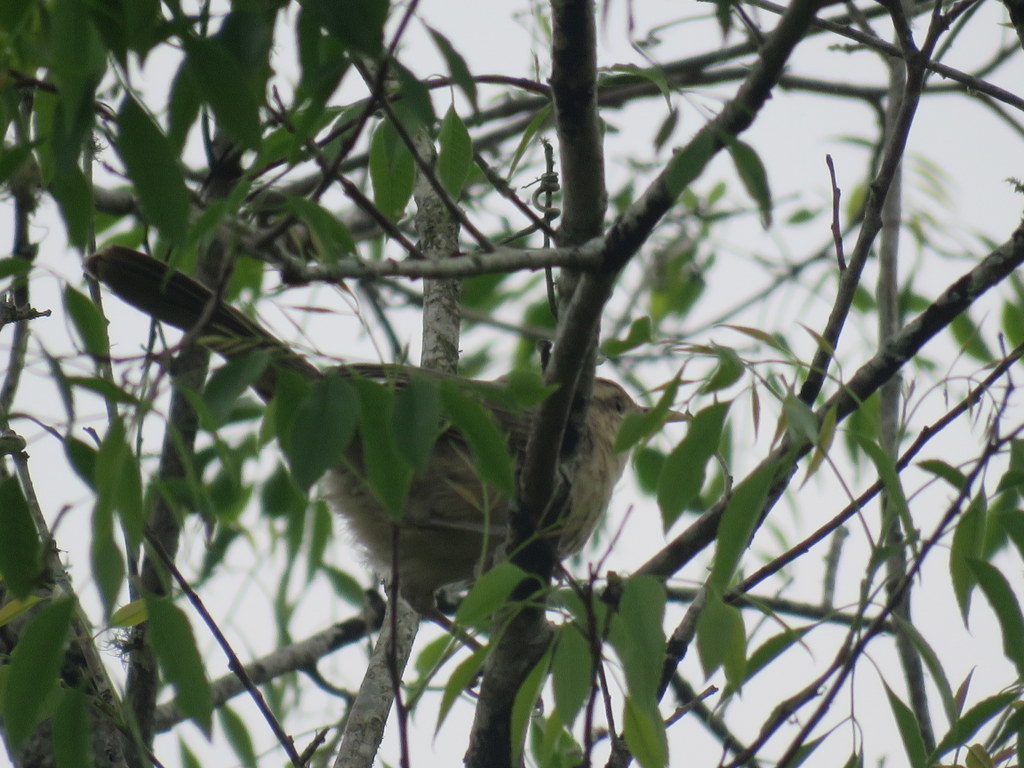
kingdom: Animalia
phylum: Chordata
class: Aves
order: Passeriformes
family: Troglodytidae
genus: Campylorhynchus
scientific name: Campylorhynchus turdinus
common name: Thrush-like wren
